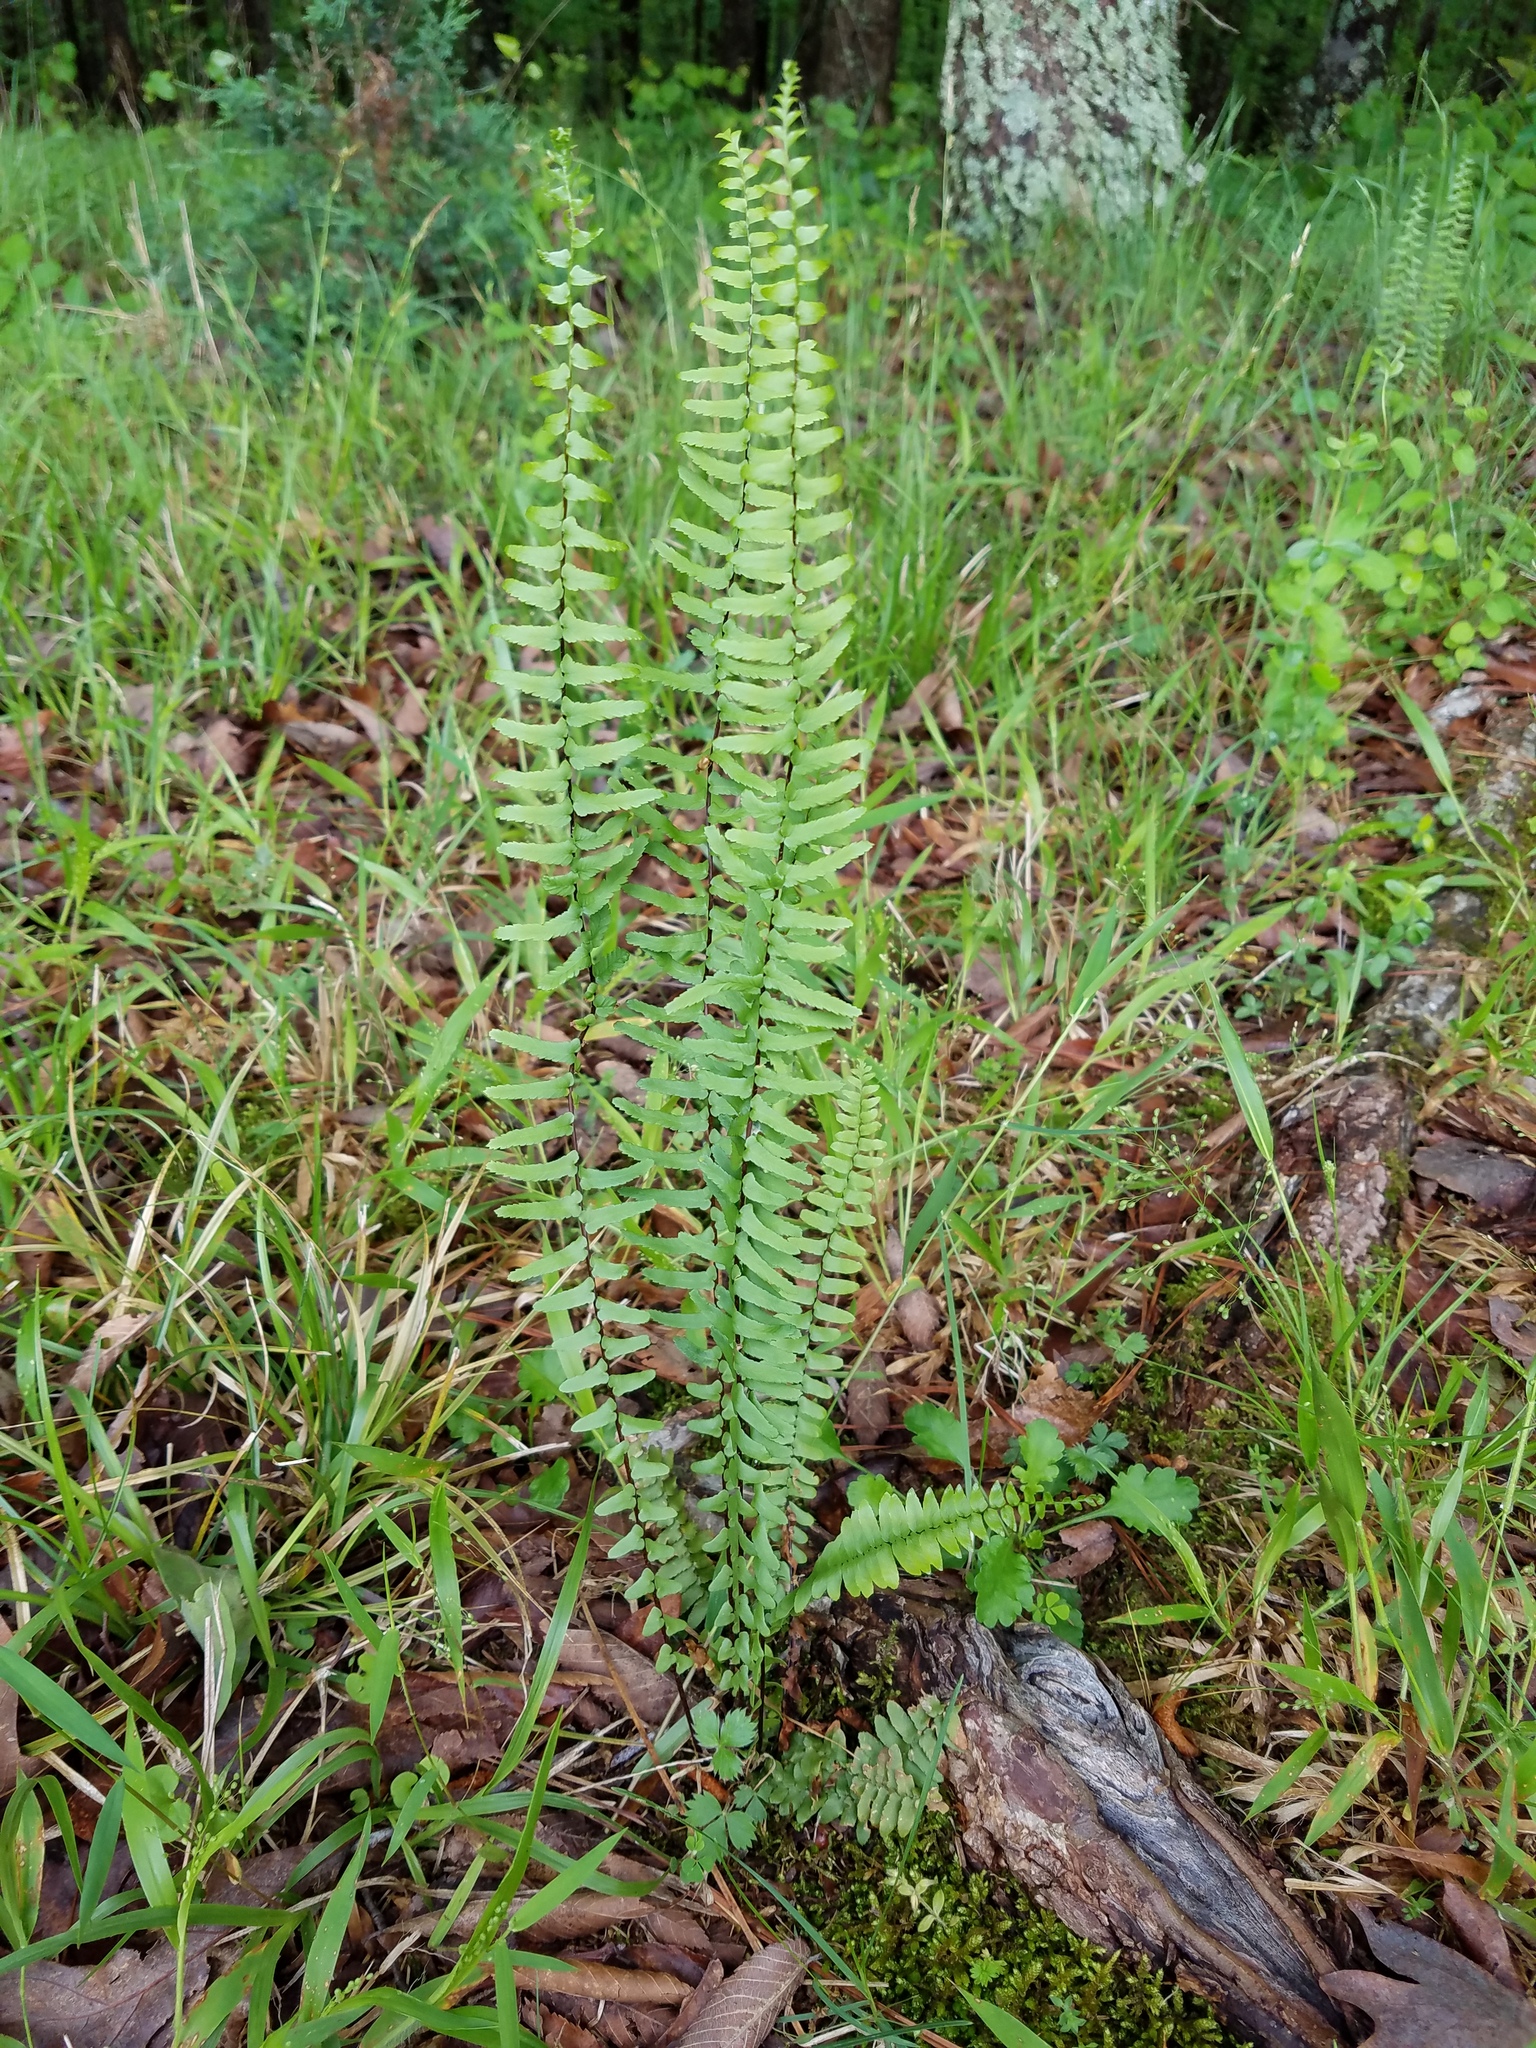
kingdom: Plantae
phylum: Tracheophyta
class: Polypodiopsida
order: Polypodiales
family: Aspleniaceae
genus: Asplenium
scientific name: Asplenium platyneuron
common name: Ebony spleenwort
